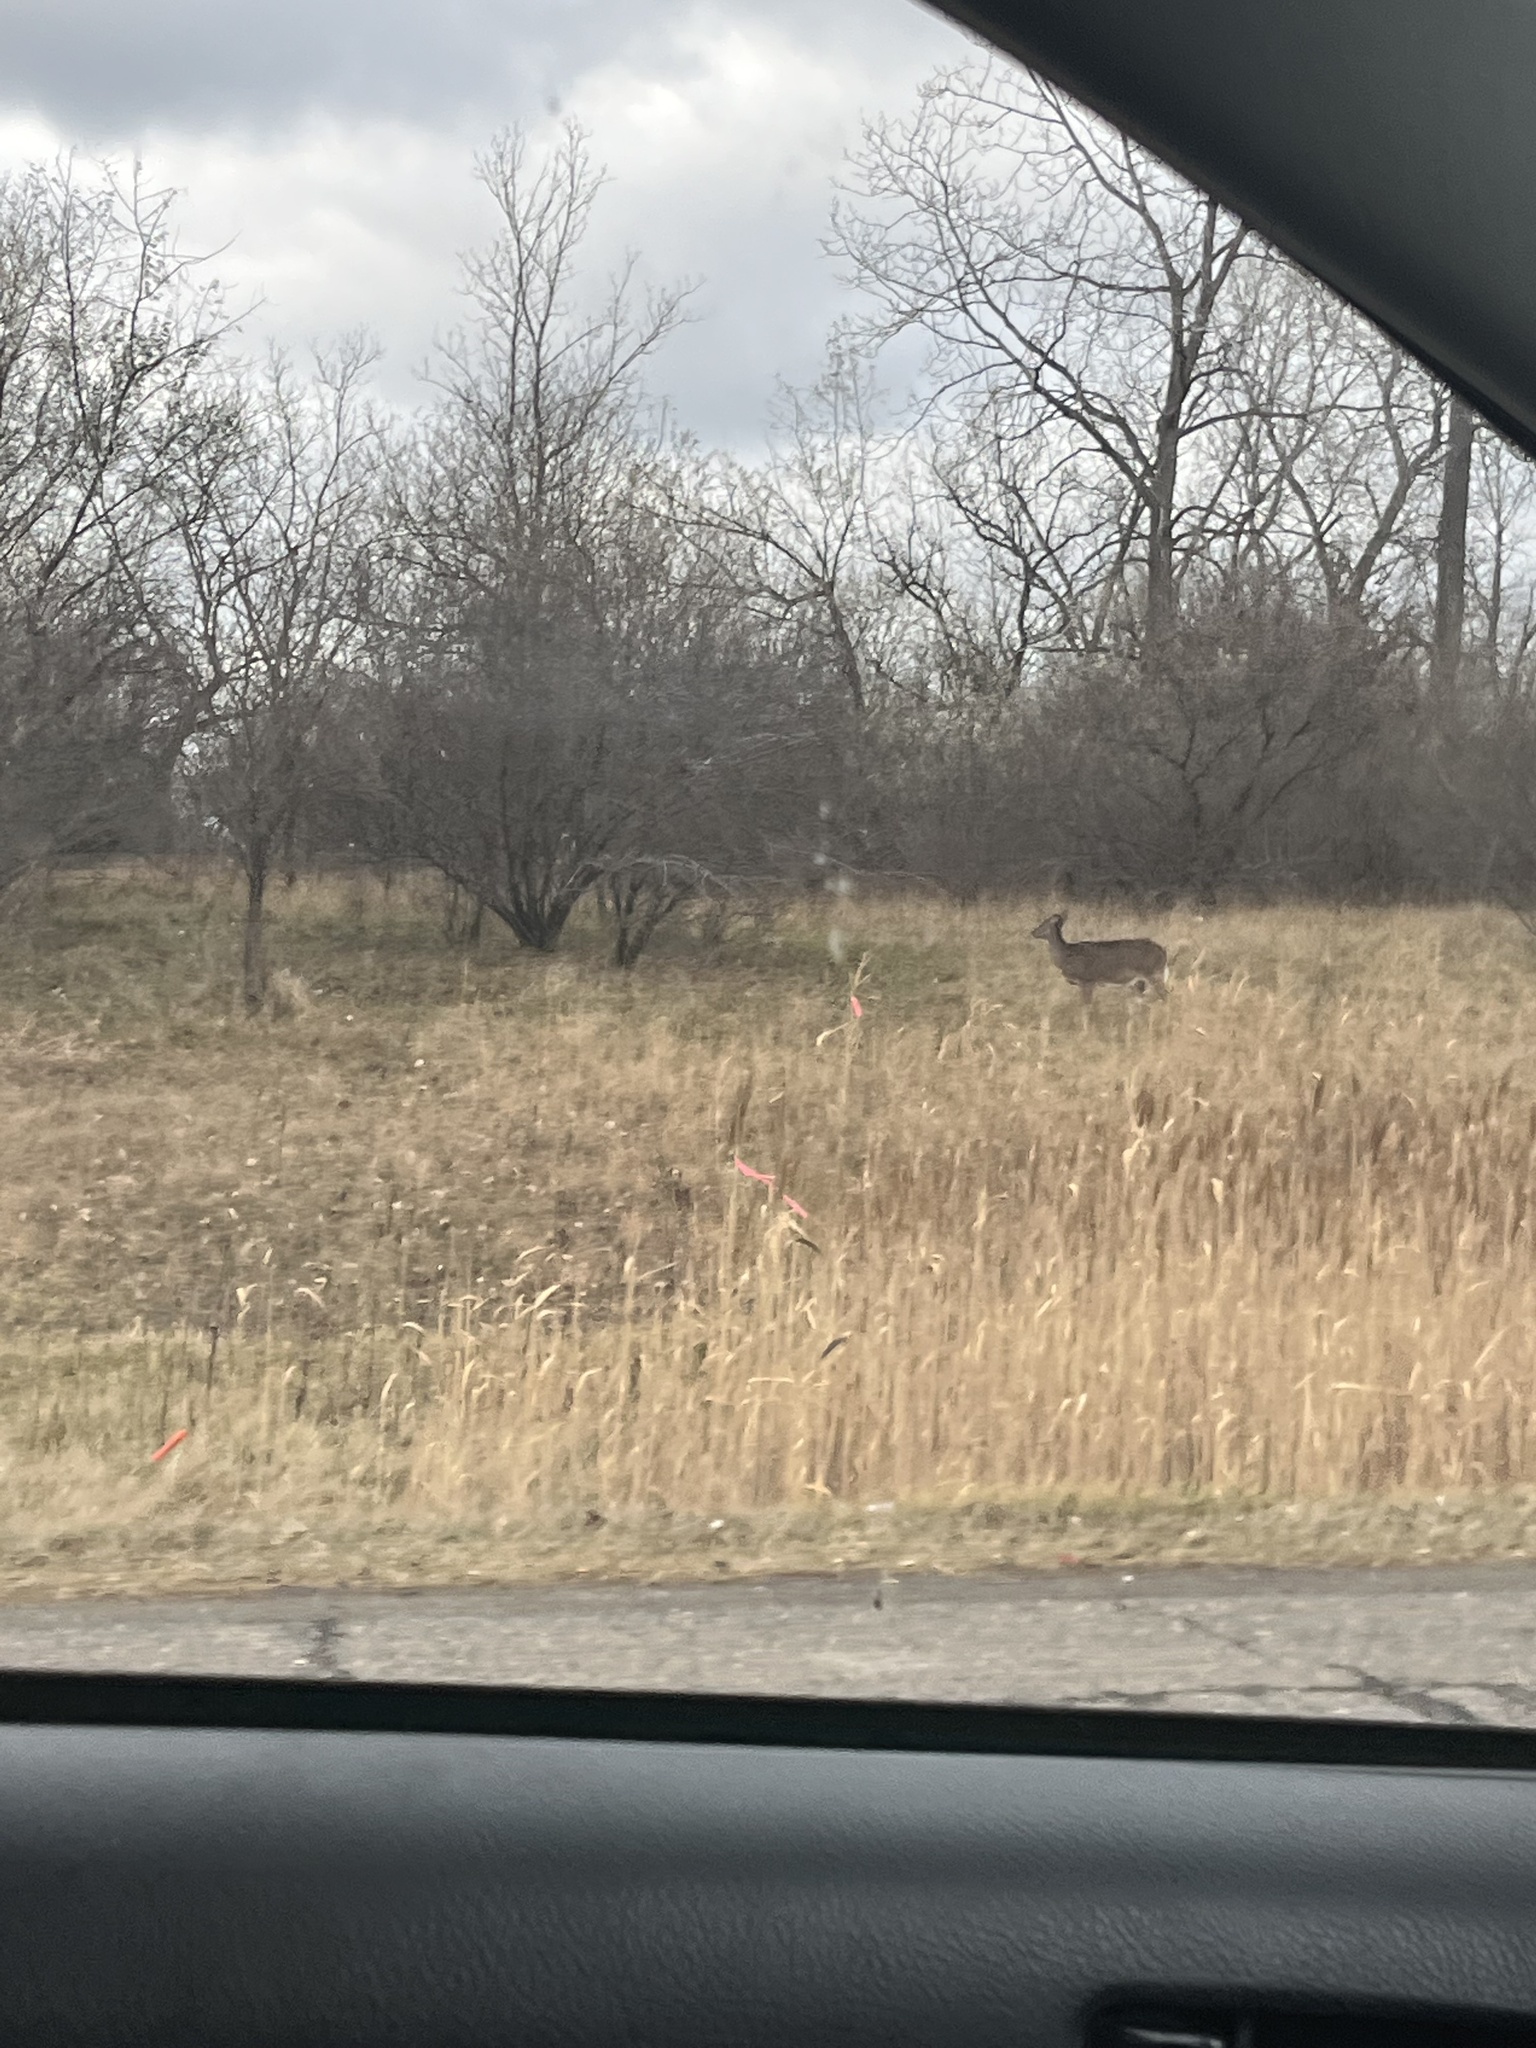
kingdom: Animalia
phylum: Chordata
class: Mammalia
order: Artiodactyla
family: Cervidae
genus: Odocoileus
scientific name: Odocoileus virginianus
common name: White-tailed deer
